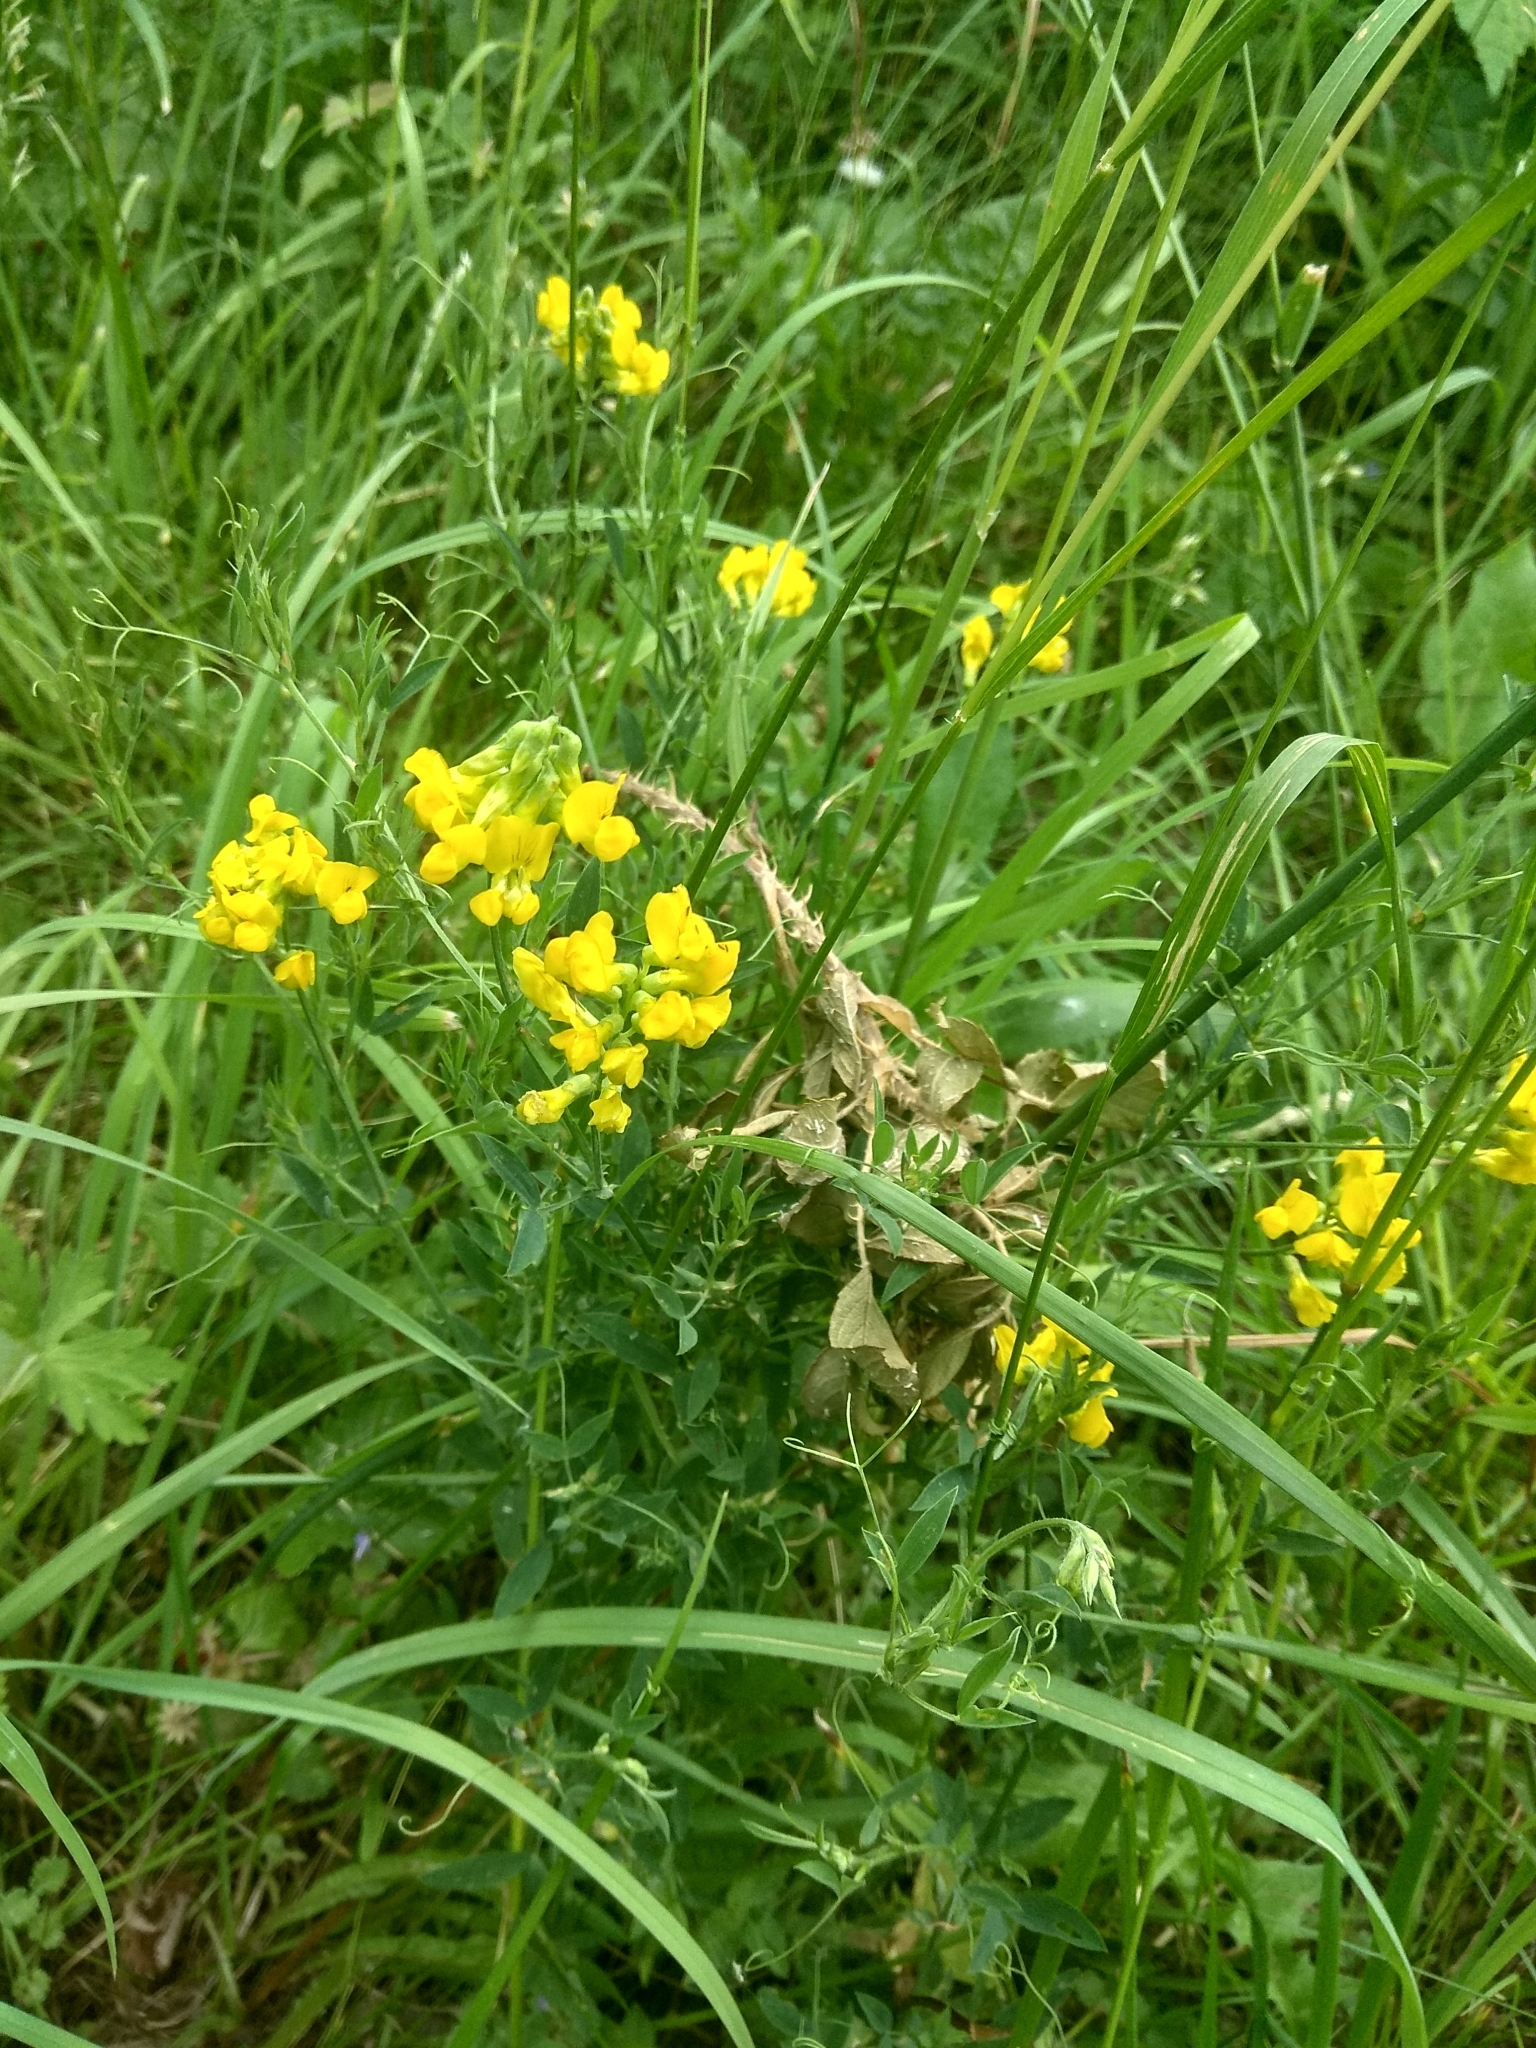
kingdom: Plantae
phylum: Tracheophyta
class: Magnoliopsida
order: Fabales
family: Fabaceae
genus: Lathyrus
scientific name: Lathyrus pratensis
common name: Meadow vetchling
